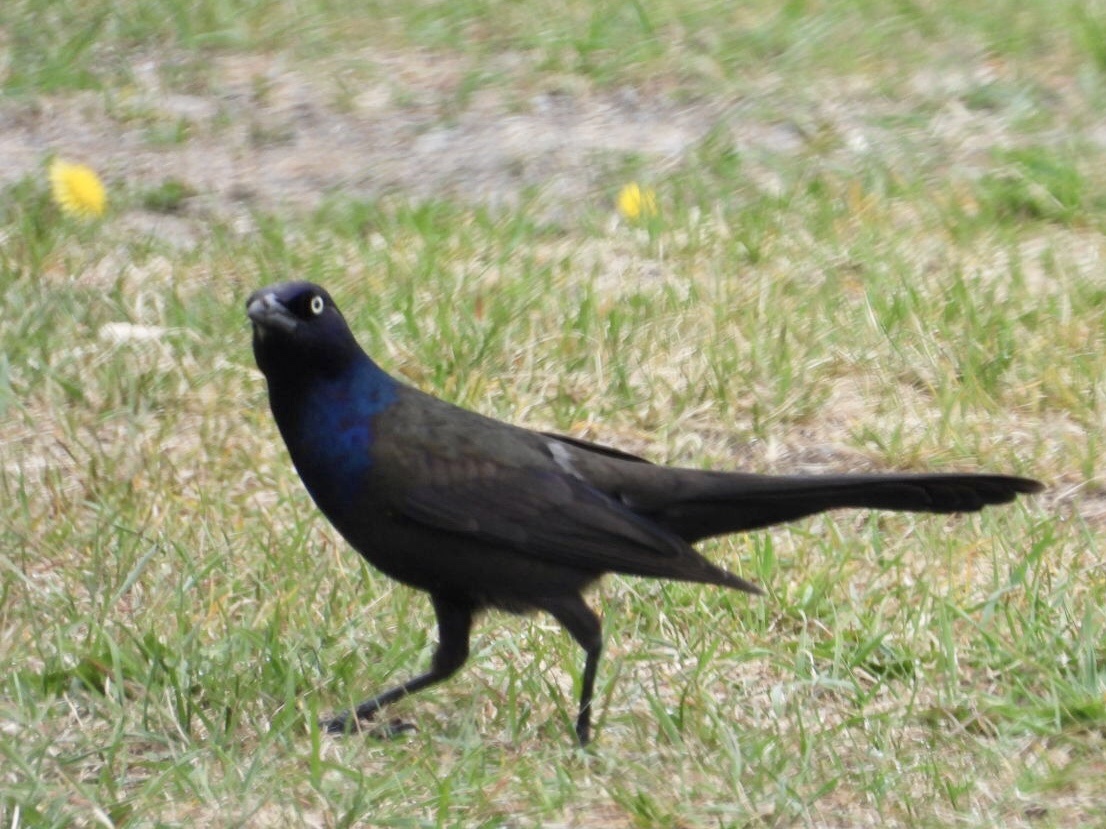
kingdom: Animalia
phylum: Chordata
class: Aves
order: Passeriformes
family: Icteridae
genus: Quiscalus
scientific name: Quiscalus quiscula
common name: Common grackle
